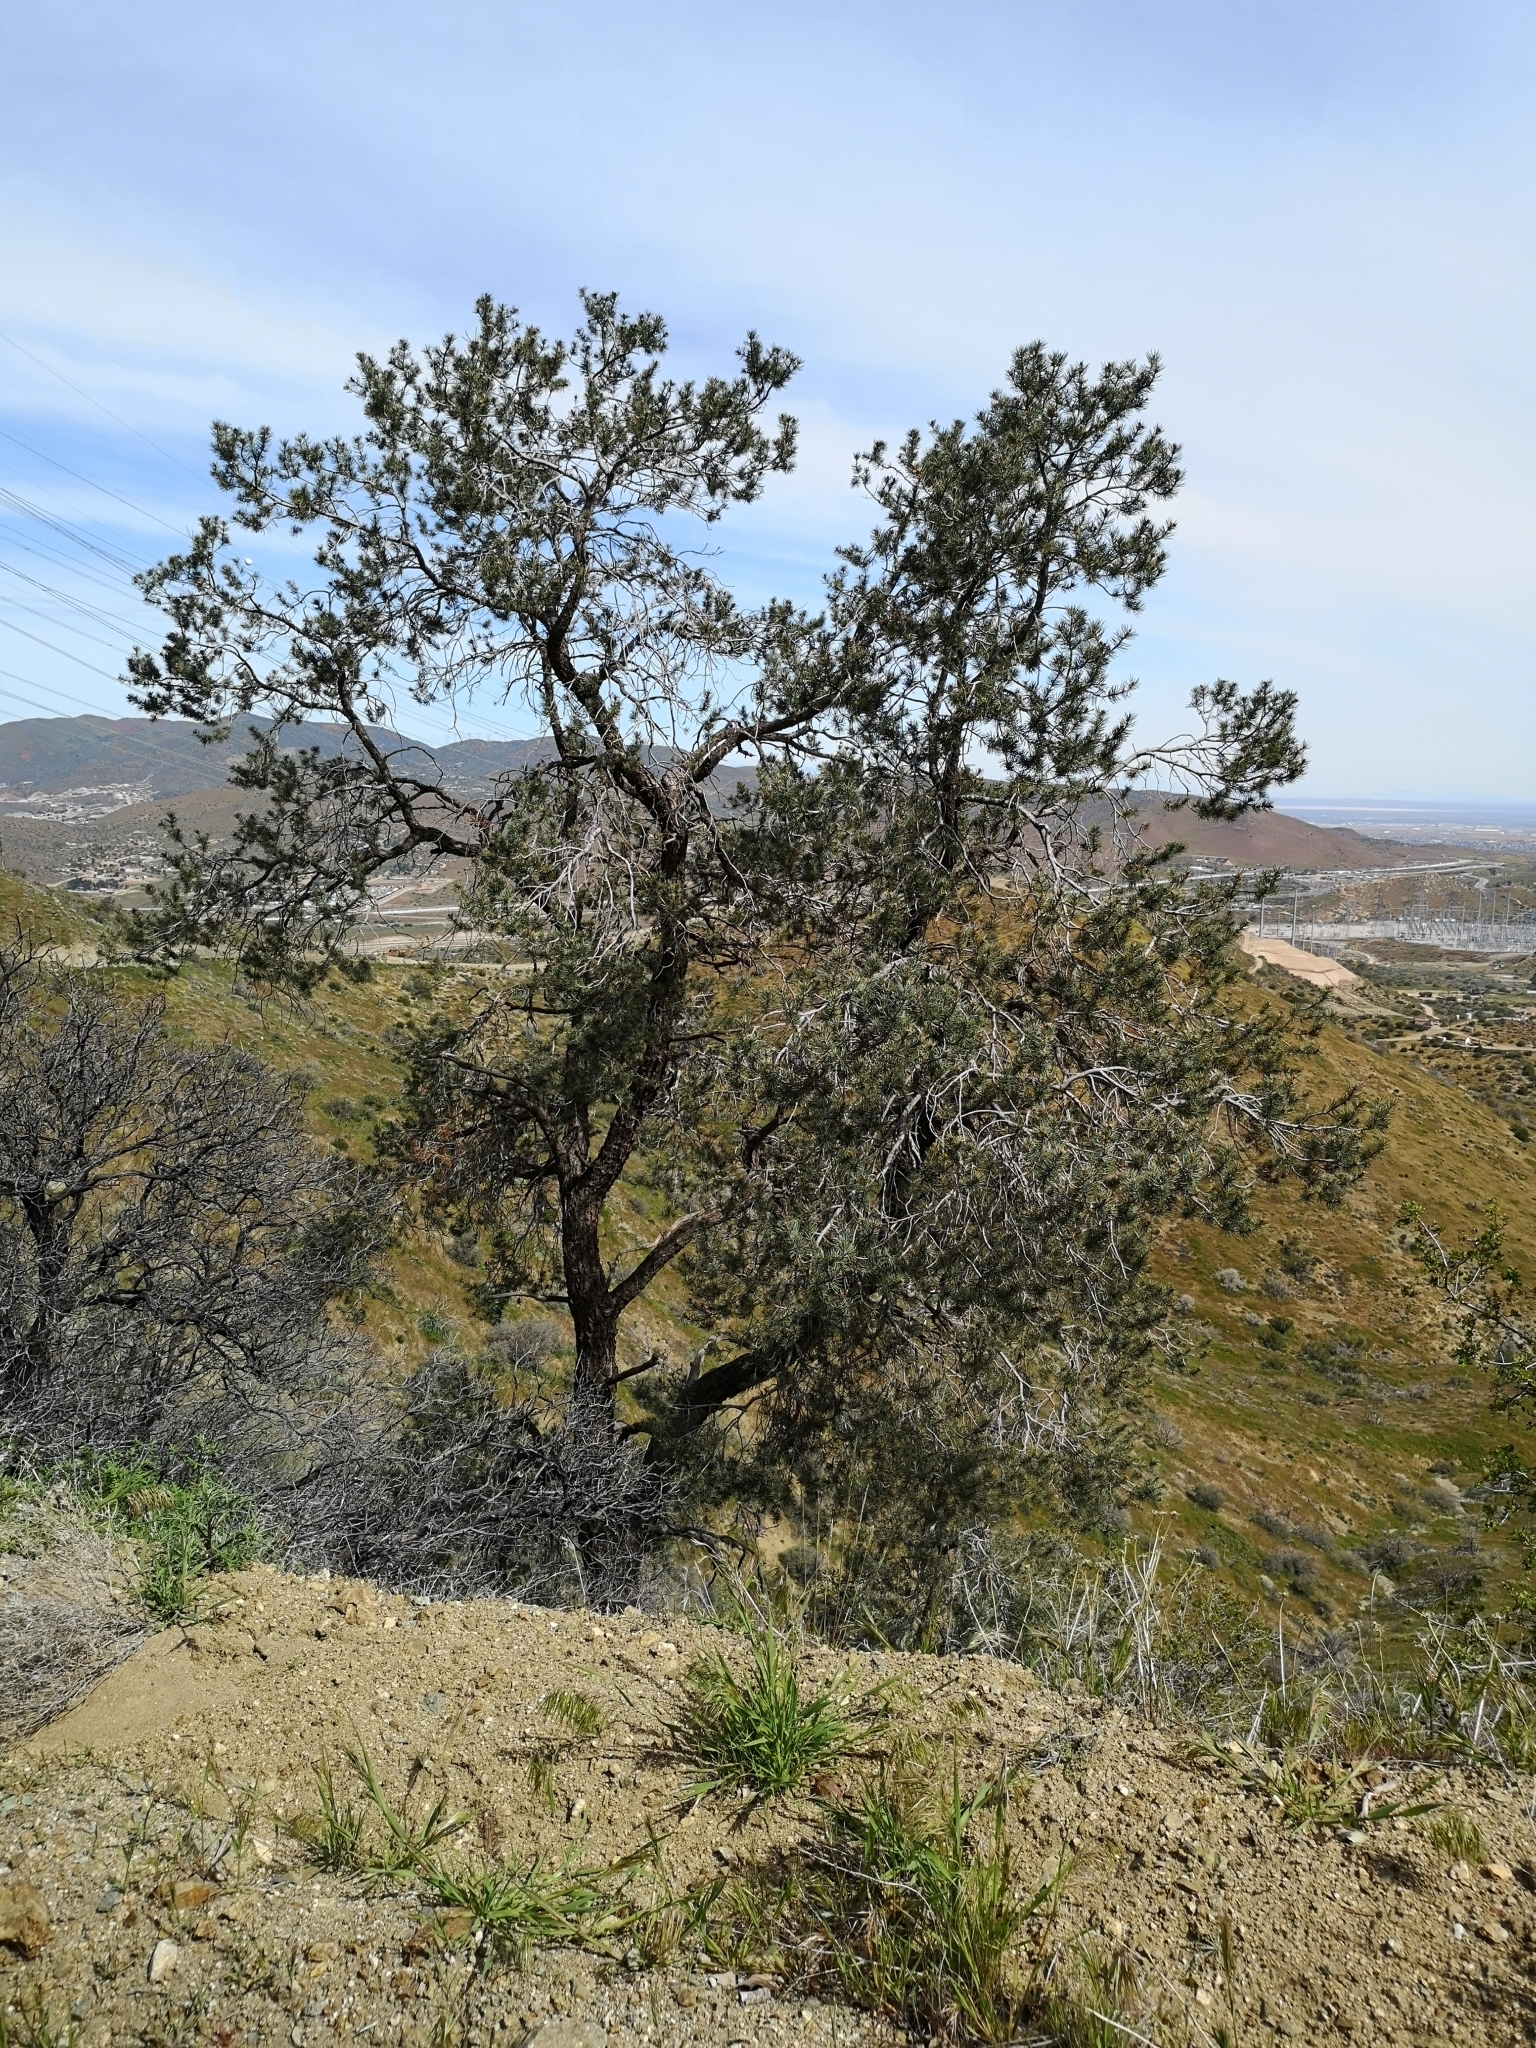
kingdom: Plantae
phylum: Tracheophyta
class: Pinopsida
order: Pinales
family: Pinaceae
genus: Pinus
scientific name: Pinus monophylla
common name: One-leaved nut pine
